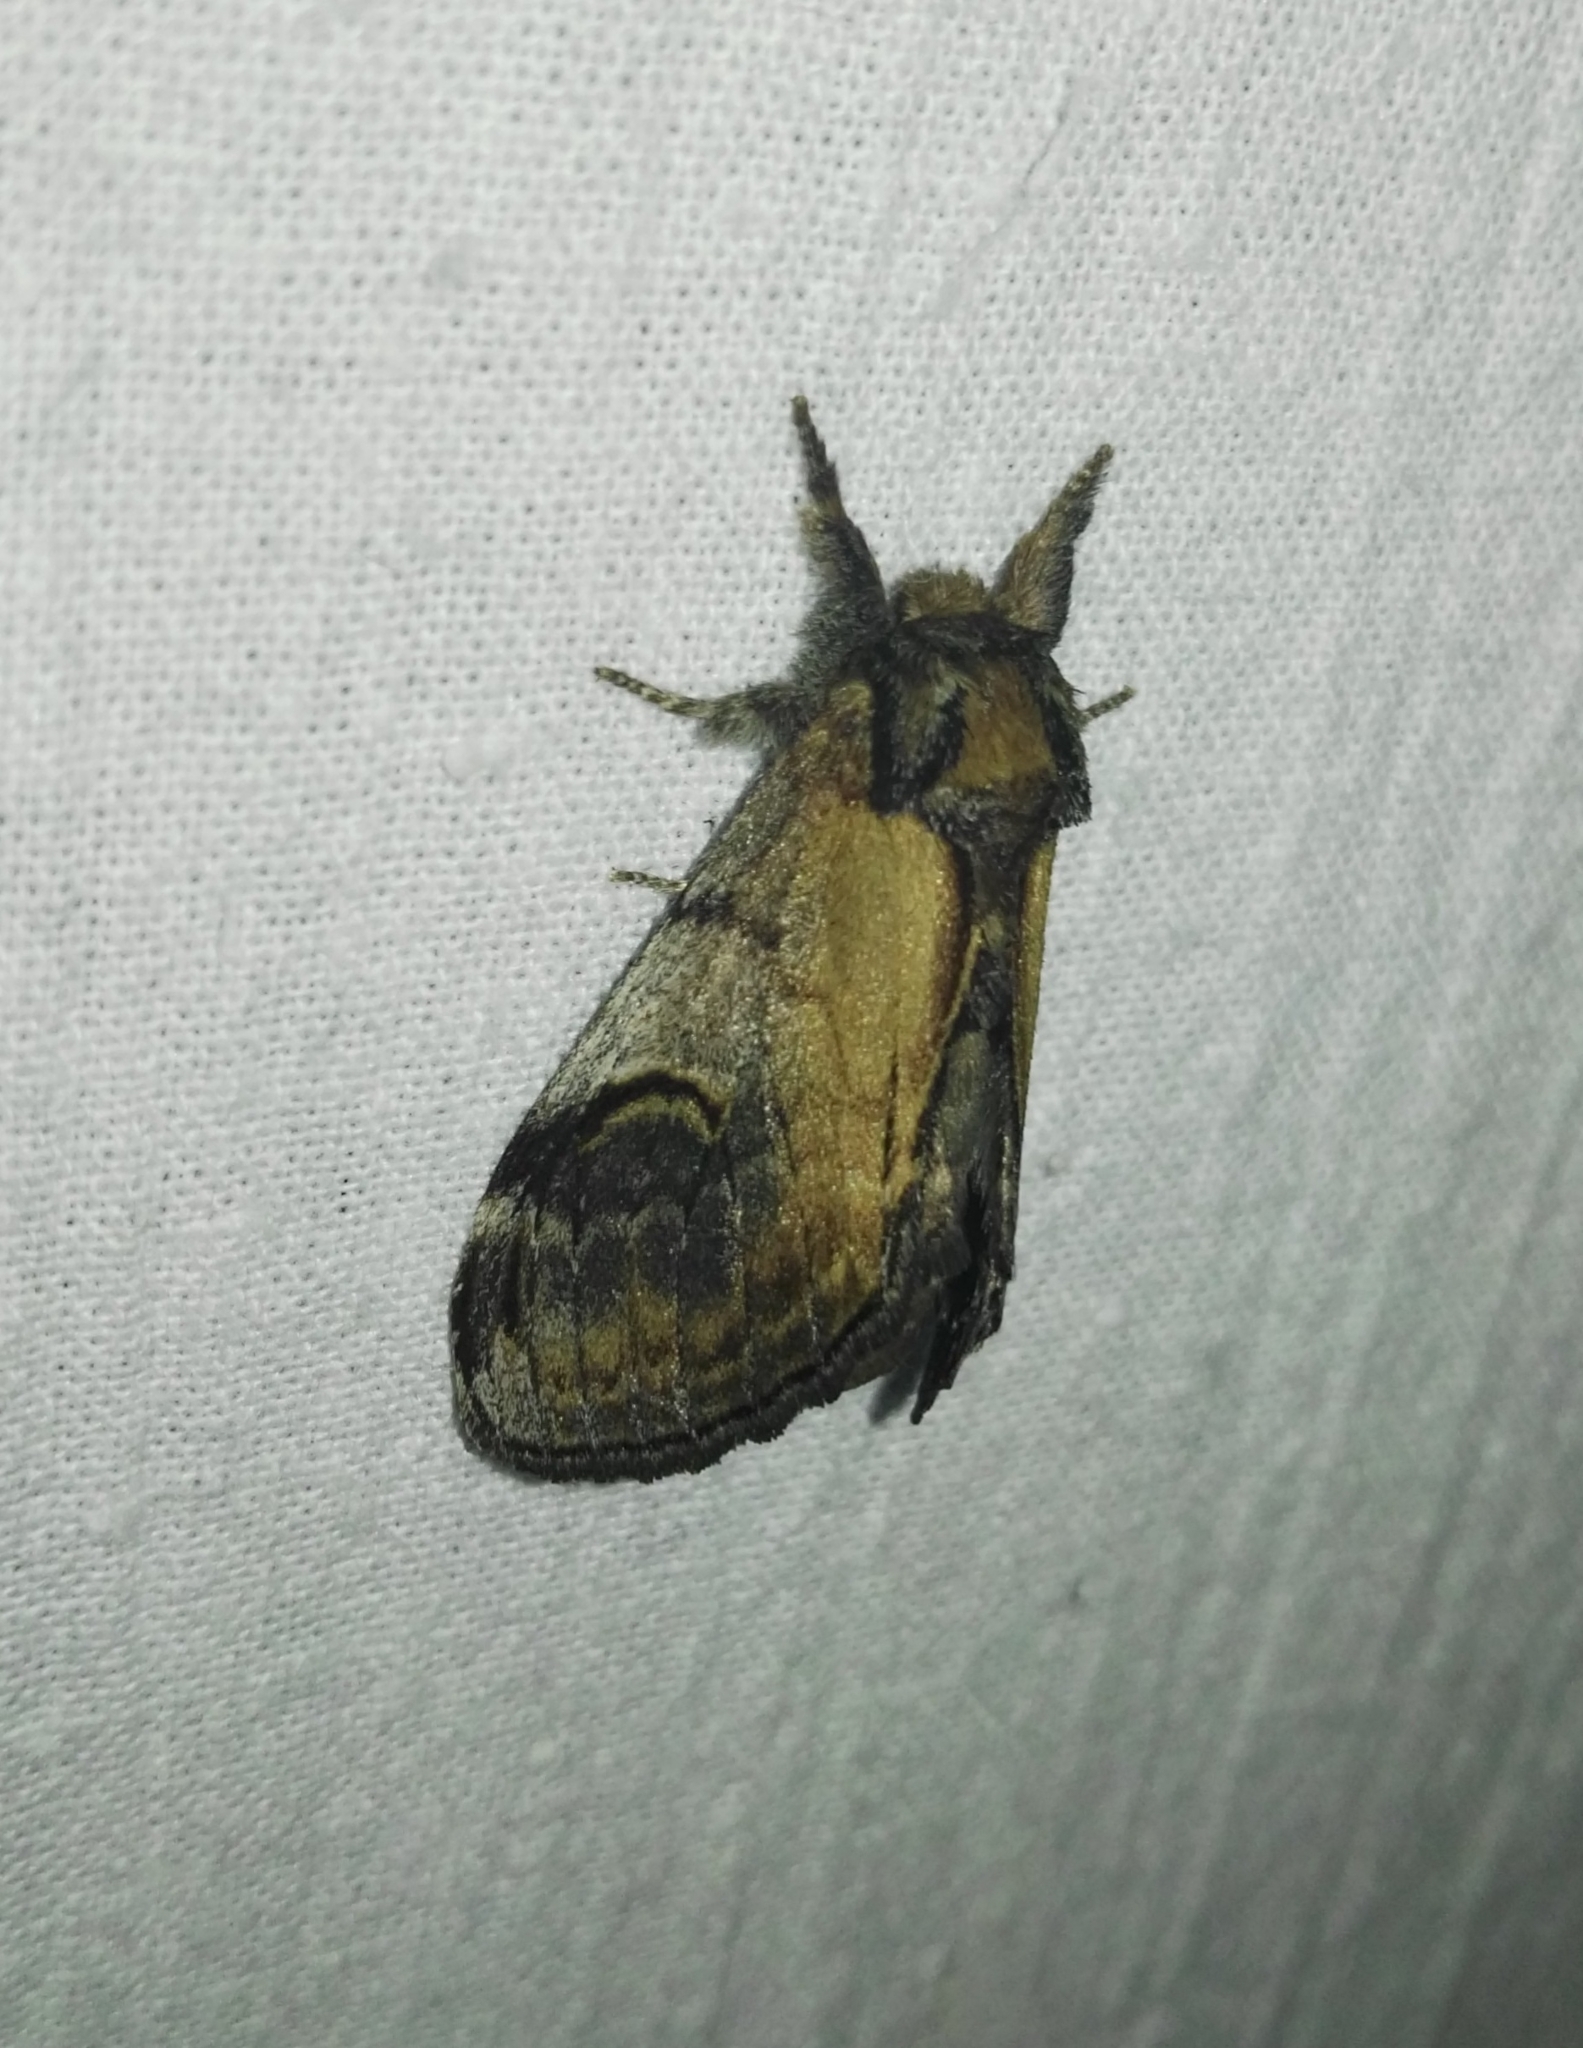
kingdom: Animalia
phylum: Arthropoda
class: Insecta
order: Lepidoptera
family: Notodontidae
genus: Notodonta
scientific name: Notodonta ziczac
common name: Pebble prominent
